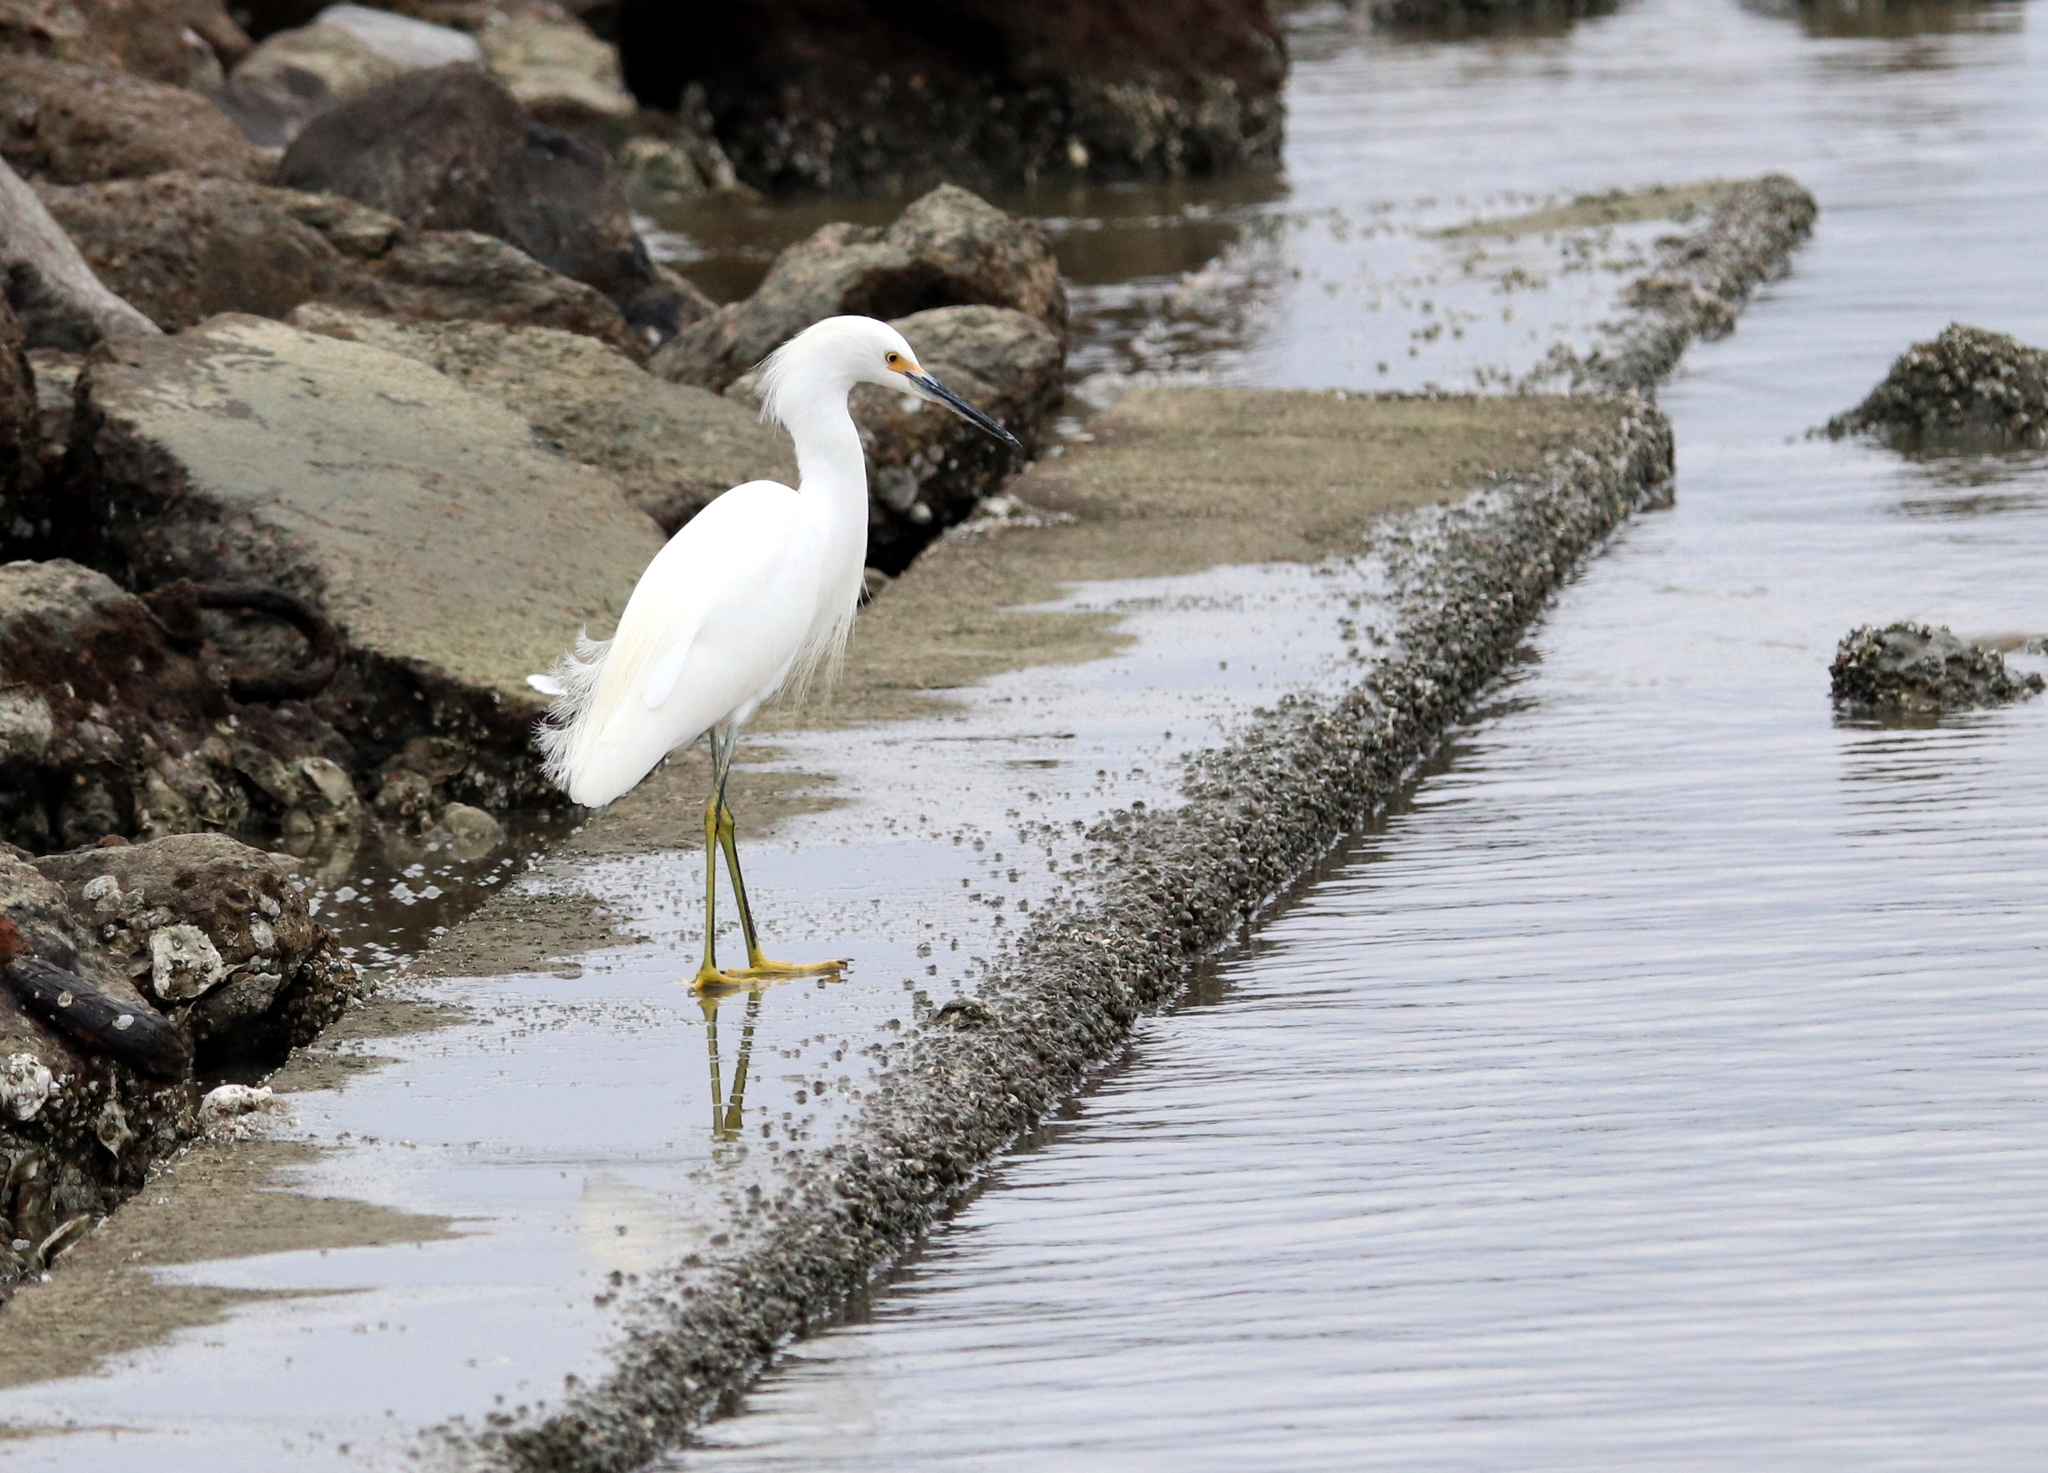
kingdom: Animalia
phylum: Chordata
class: Aves
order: Pelecaniformes
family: Ardeidae
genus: Egretta
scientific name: Egretta thula
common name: Snowy egret
